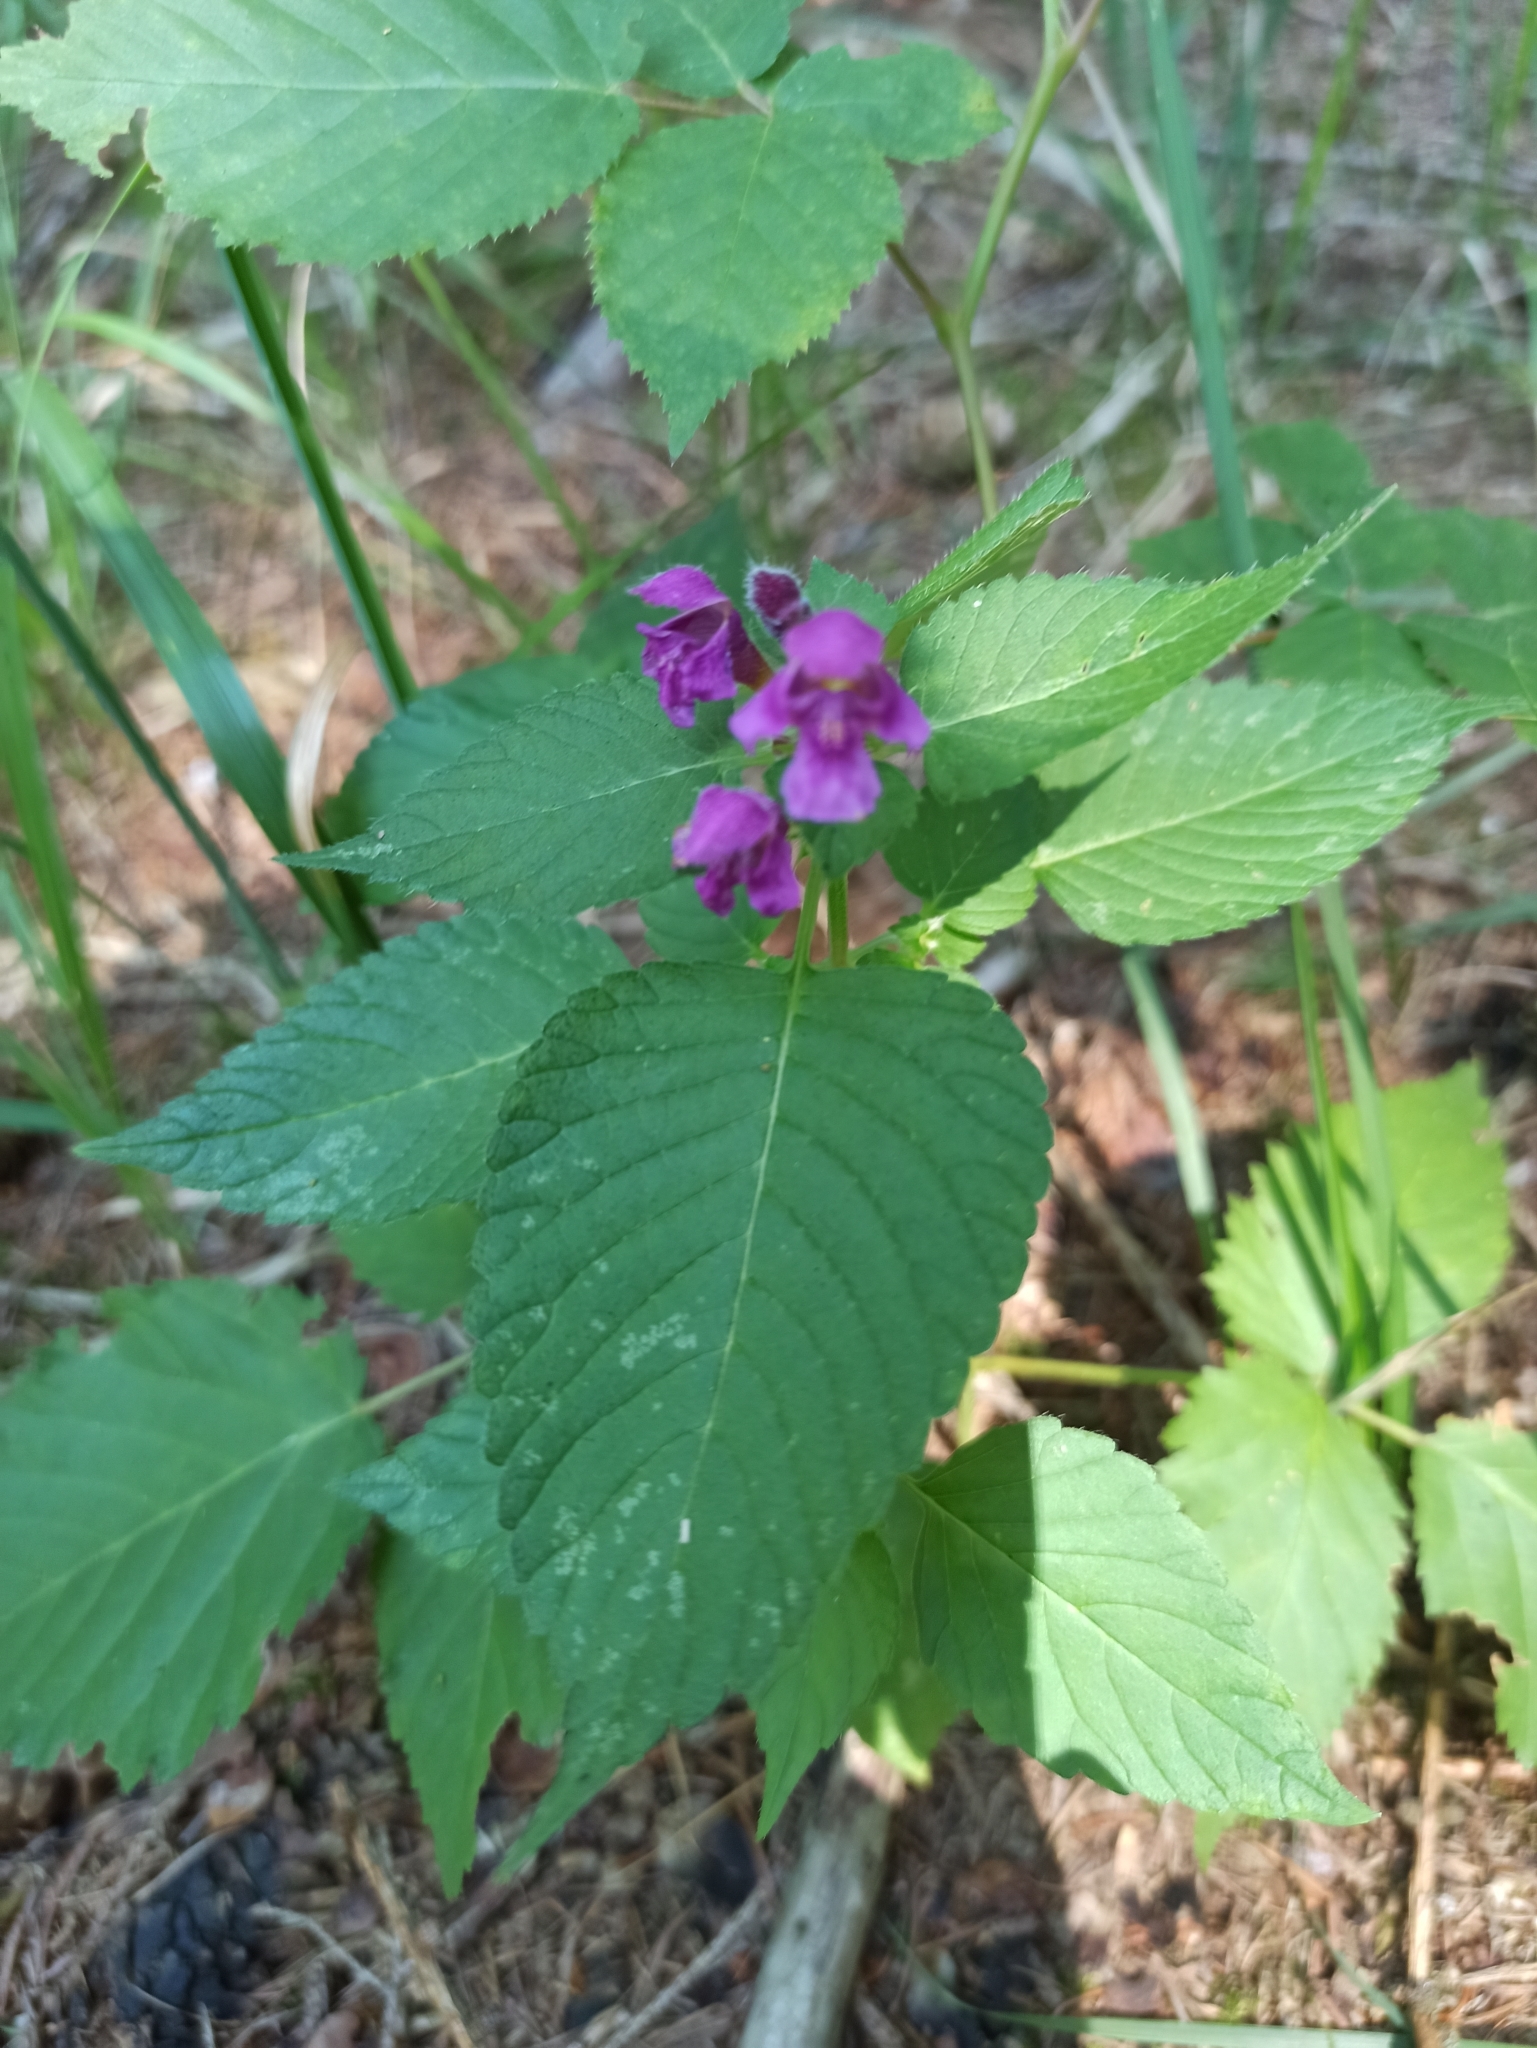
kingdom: Plantae
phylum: Tracheophyta
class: Magnoliopsida
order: Lamiales
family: Lamiaceae
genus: Galeopsis
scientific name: Galeopsis pubescens
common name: Downy hemp-nettle
